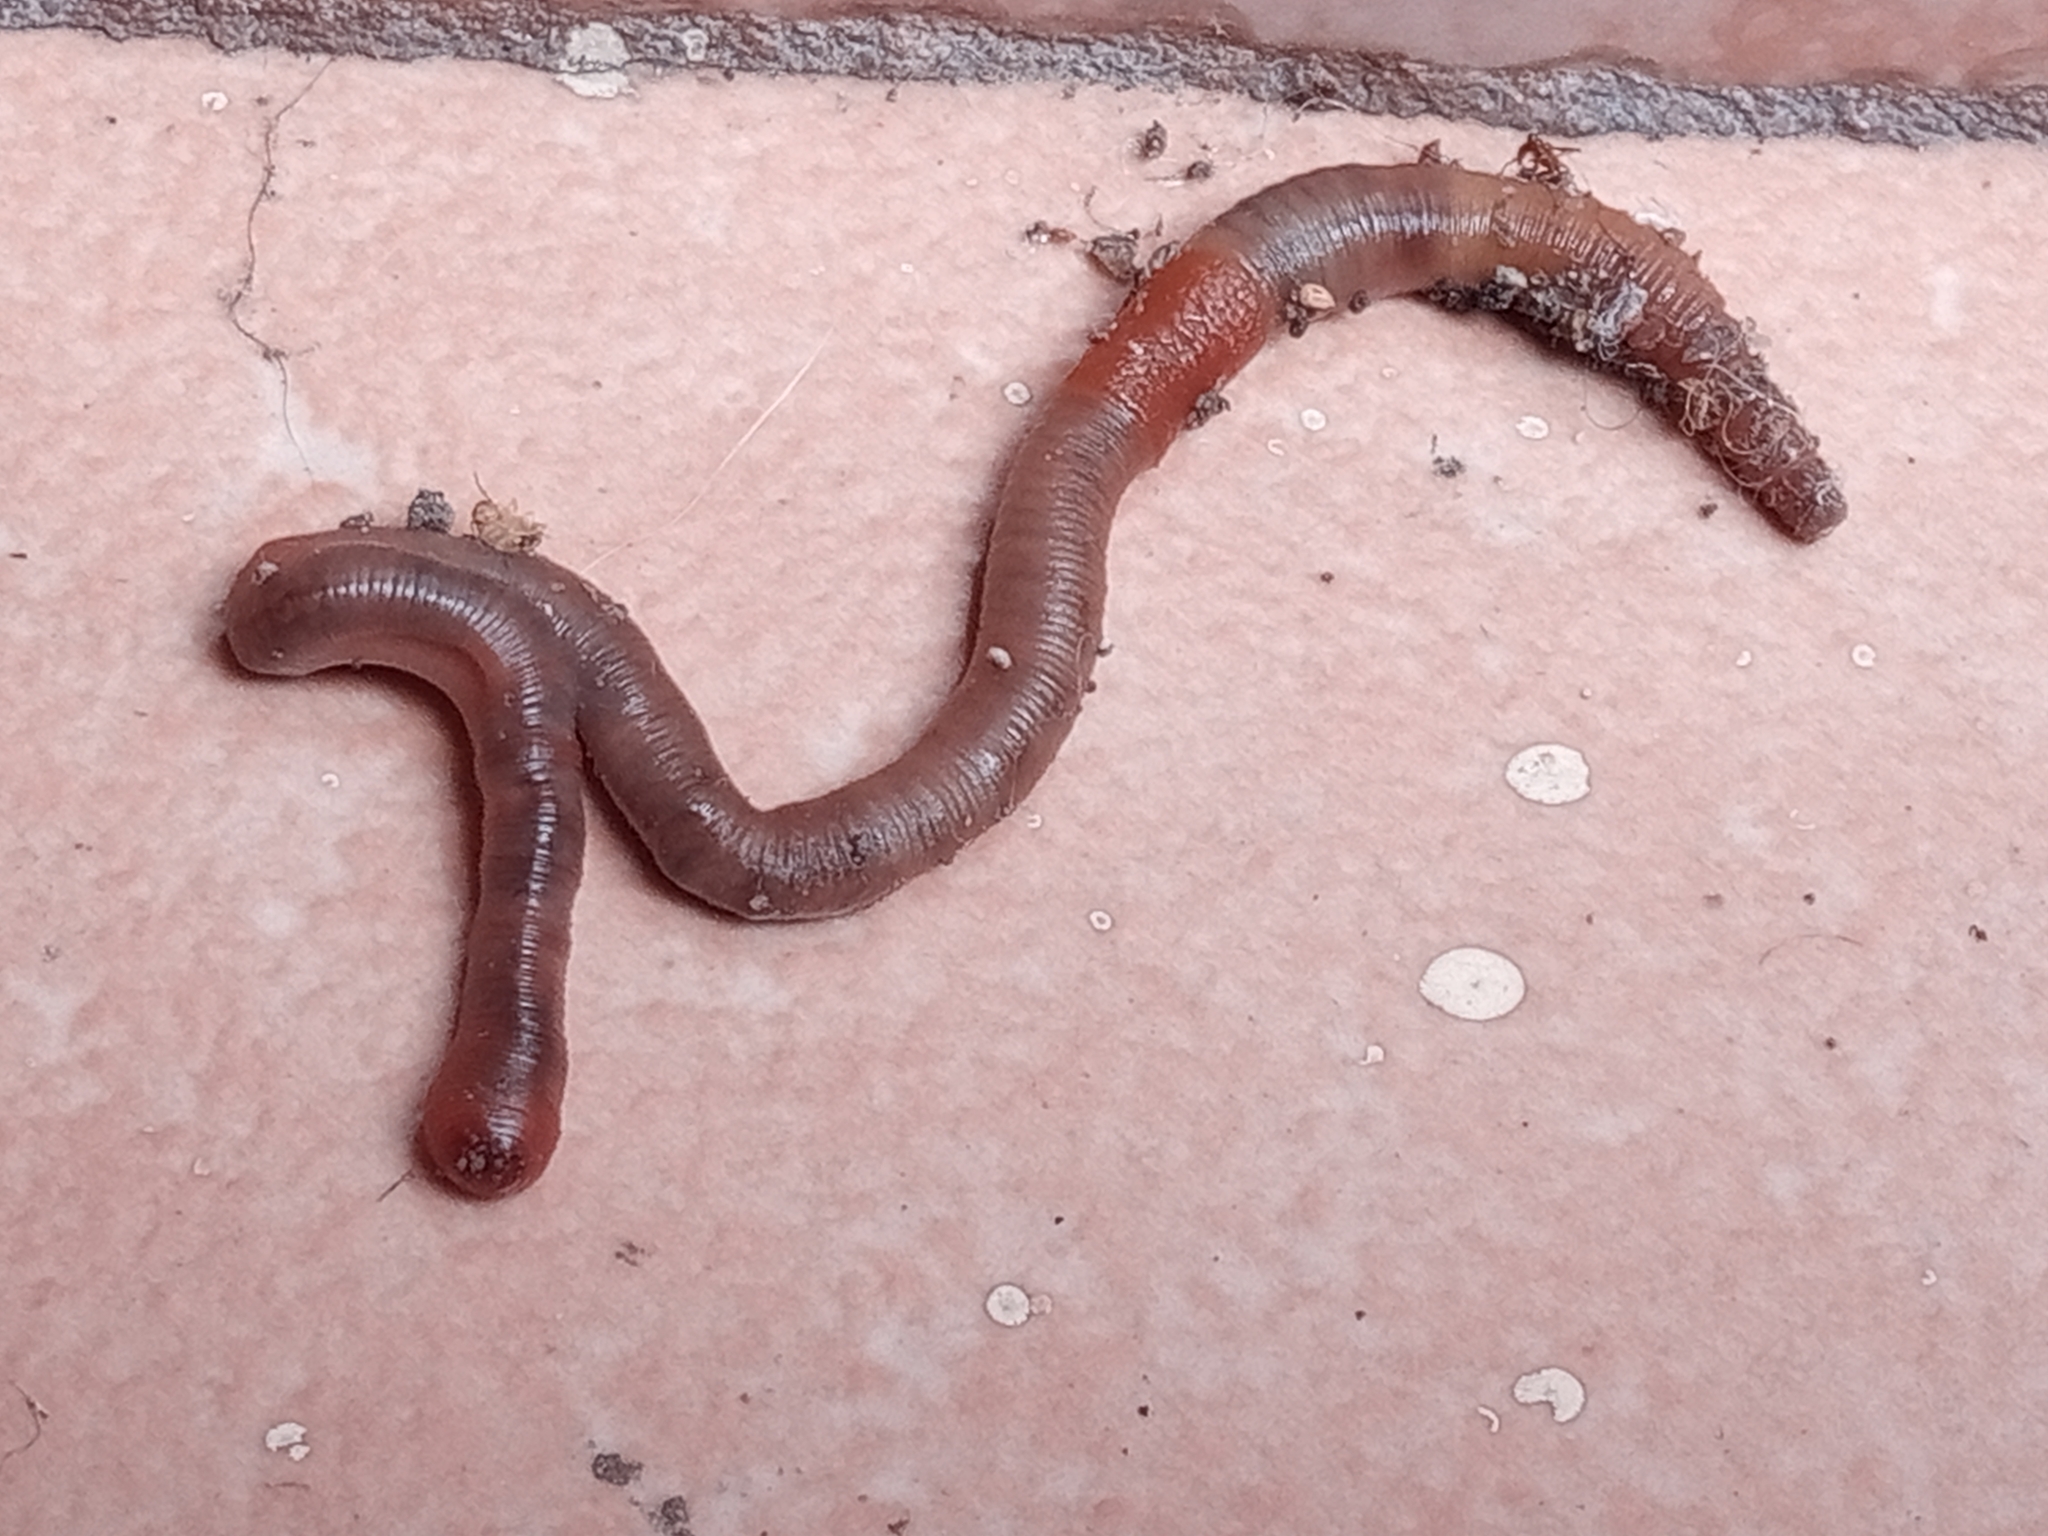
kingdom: Animalia
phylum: Annelida
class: Clitellata
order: Crassiclitellata
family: Lumbricidae
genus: Lumbricus
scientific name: Lumbricus terrestris
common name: Common earthworm
